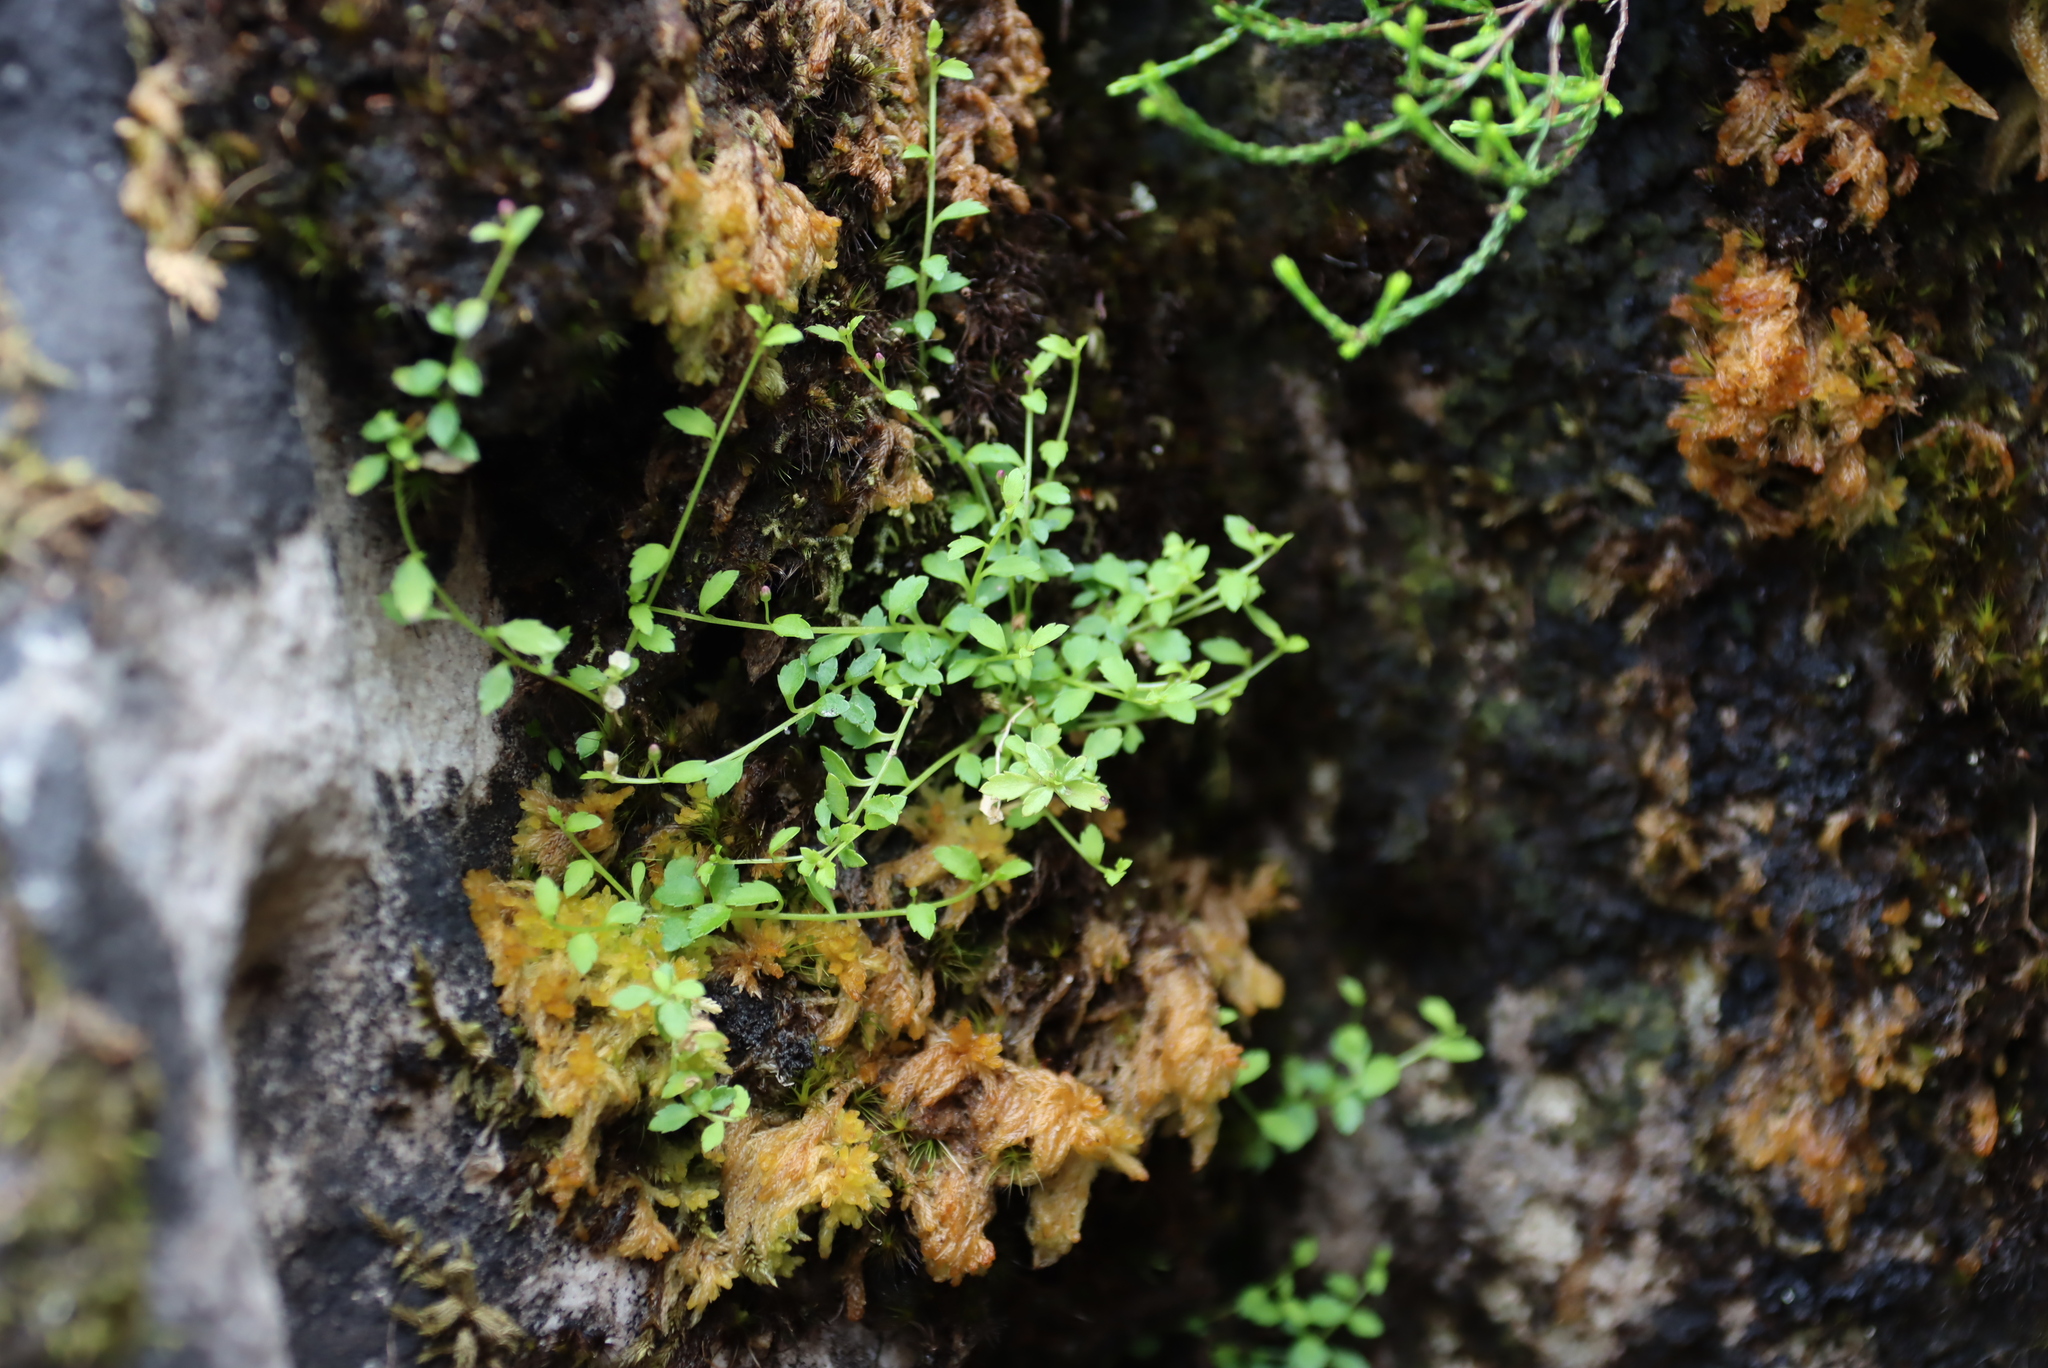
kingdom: Plantae
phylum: Tracheophyta
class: Magnoliopsida
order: Asterales
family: Campanulaceae
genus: Unigenes
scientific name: Unigenes humifusa
